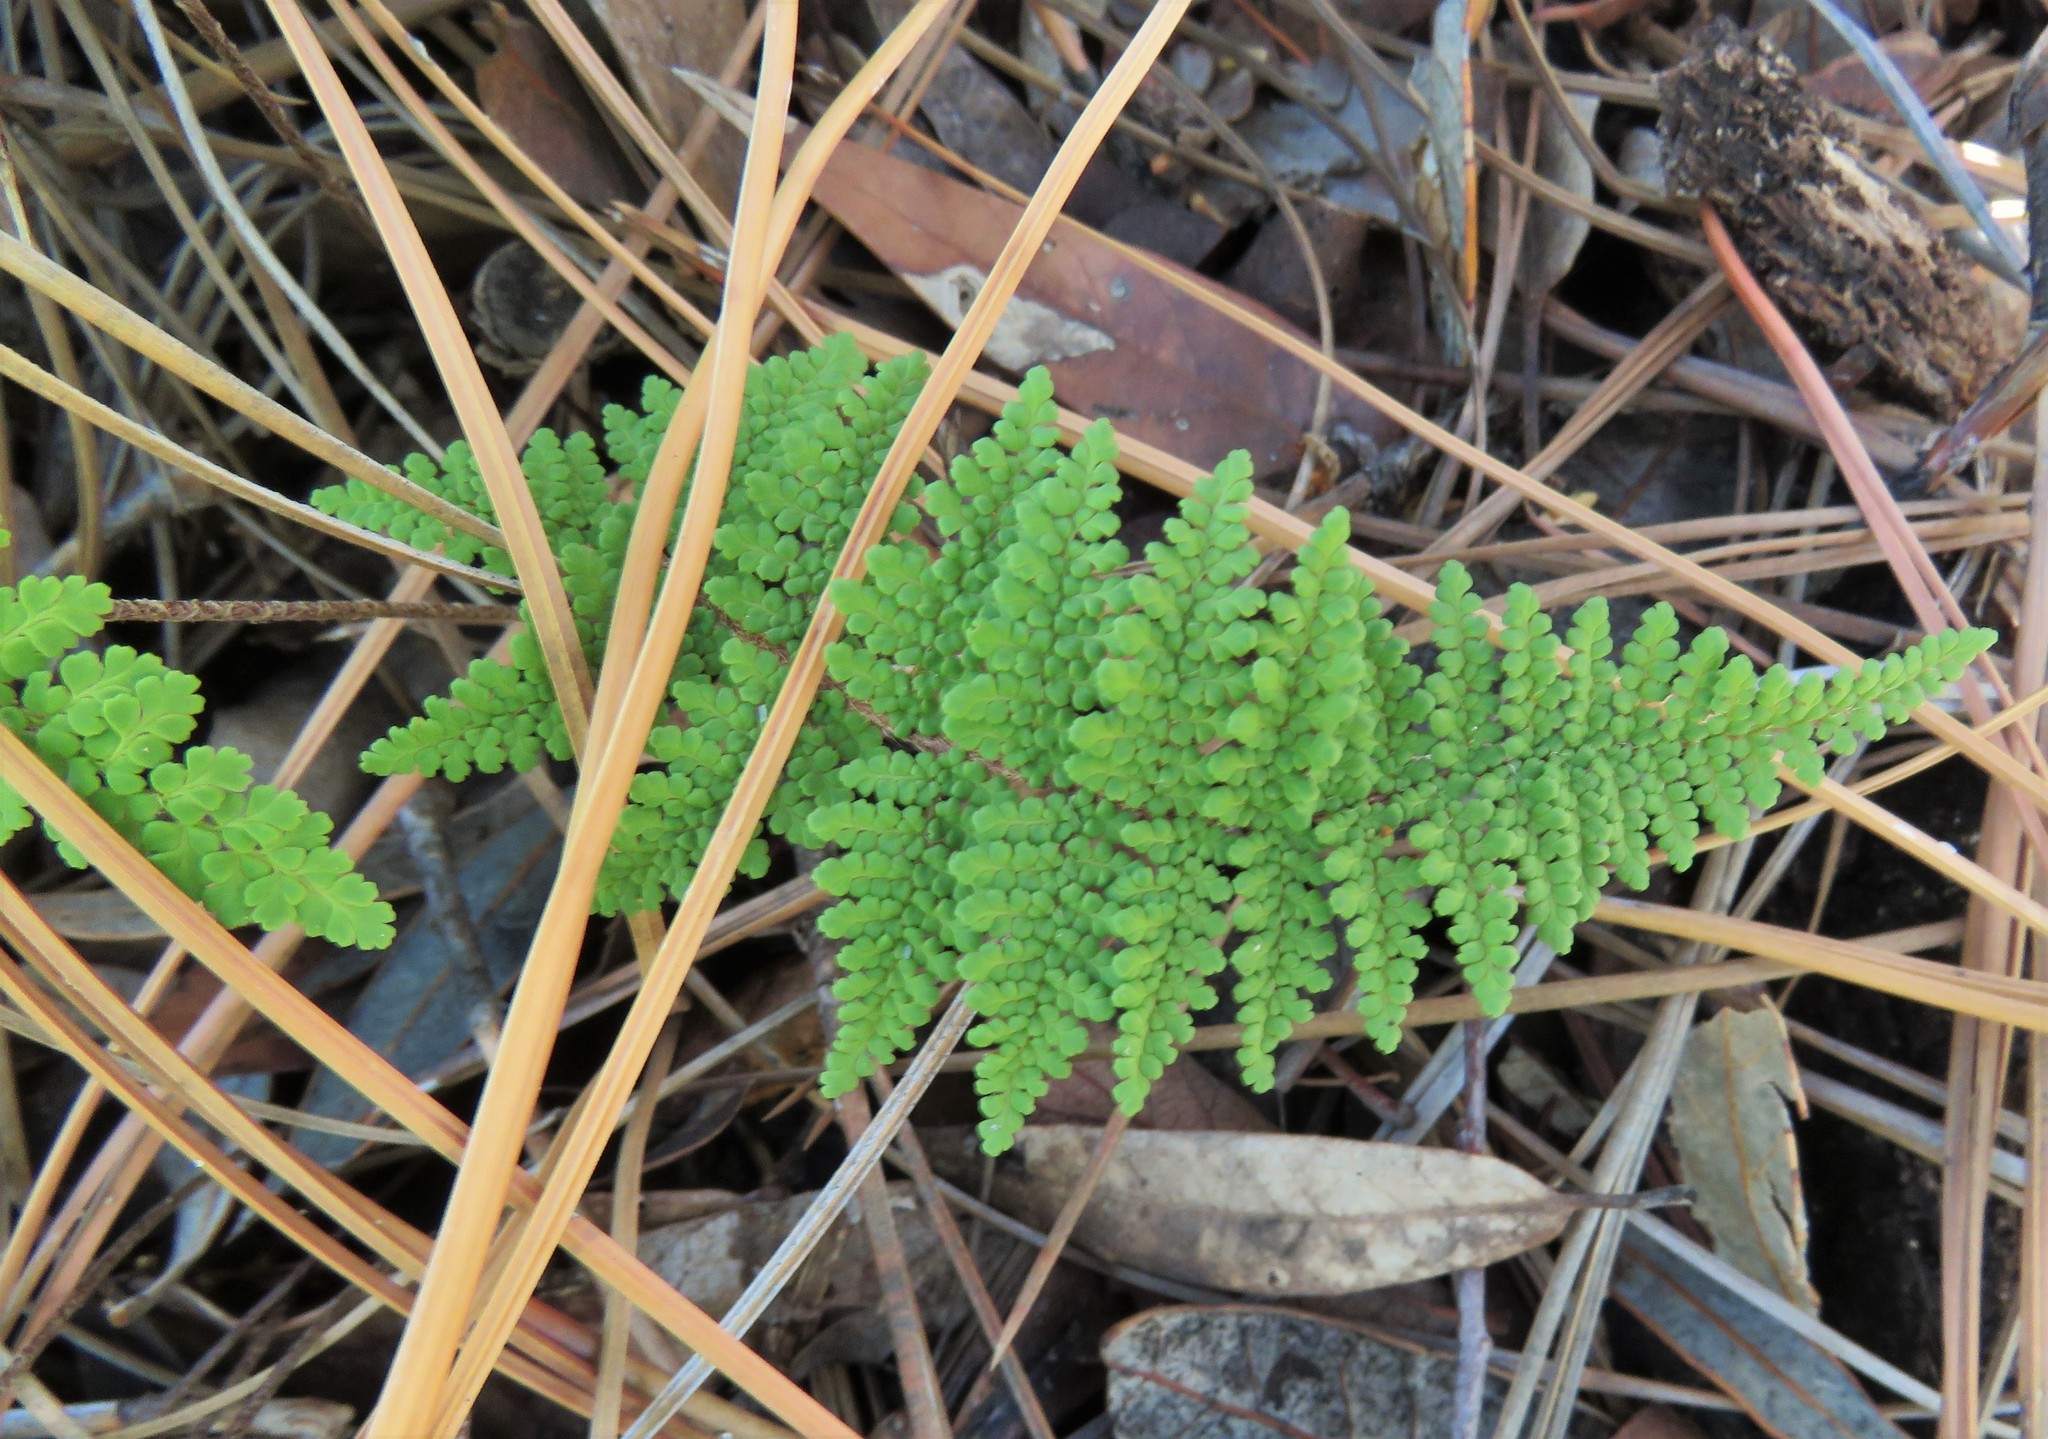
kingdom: Plantae
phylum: Tracheophyta
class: Polypodiopsida
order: Polypodiales
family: Pteridaceae
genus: Myriopteris
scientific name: Myriopteris fendleri
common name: Fendler's lip fern
